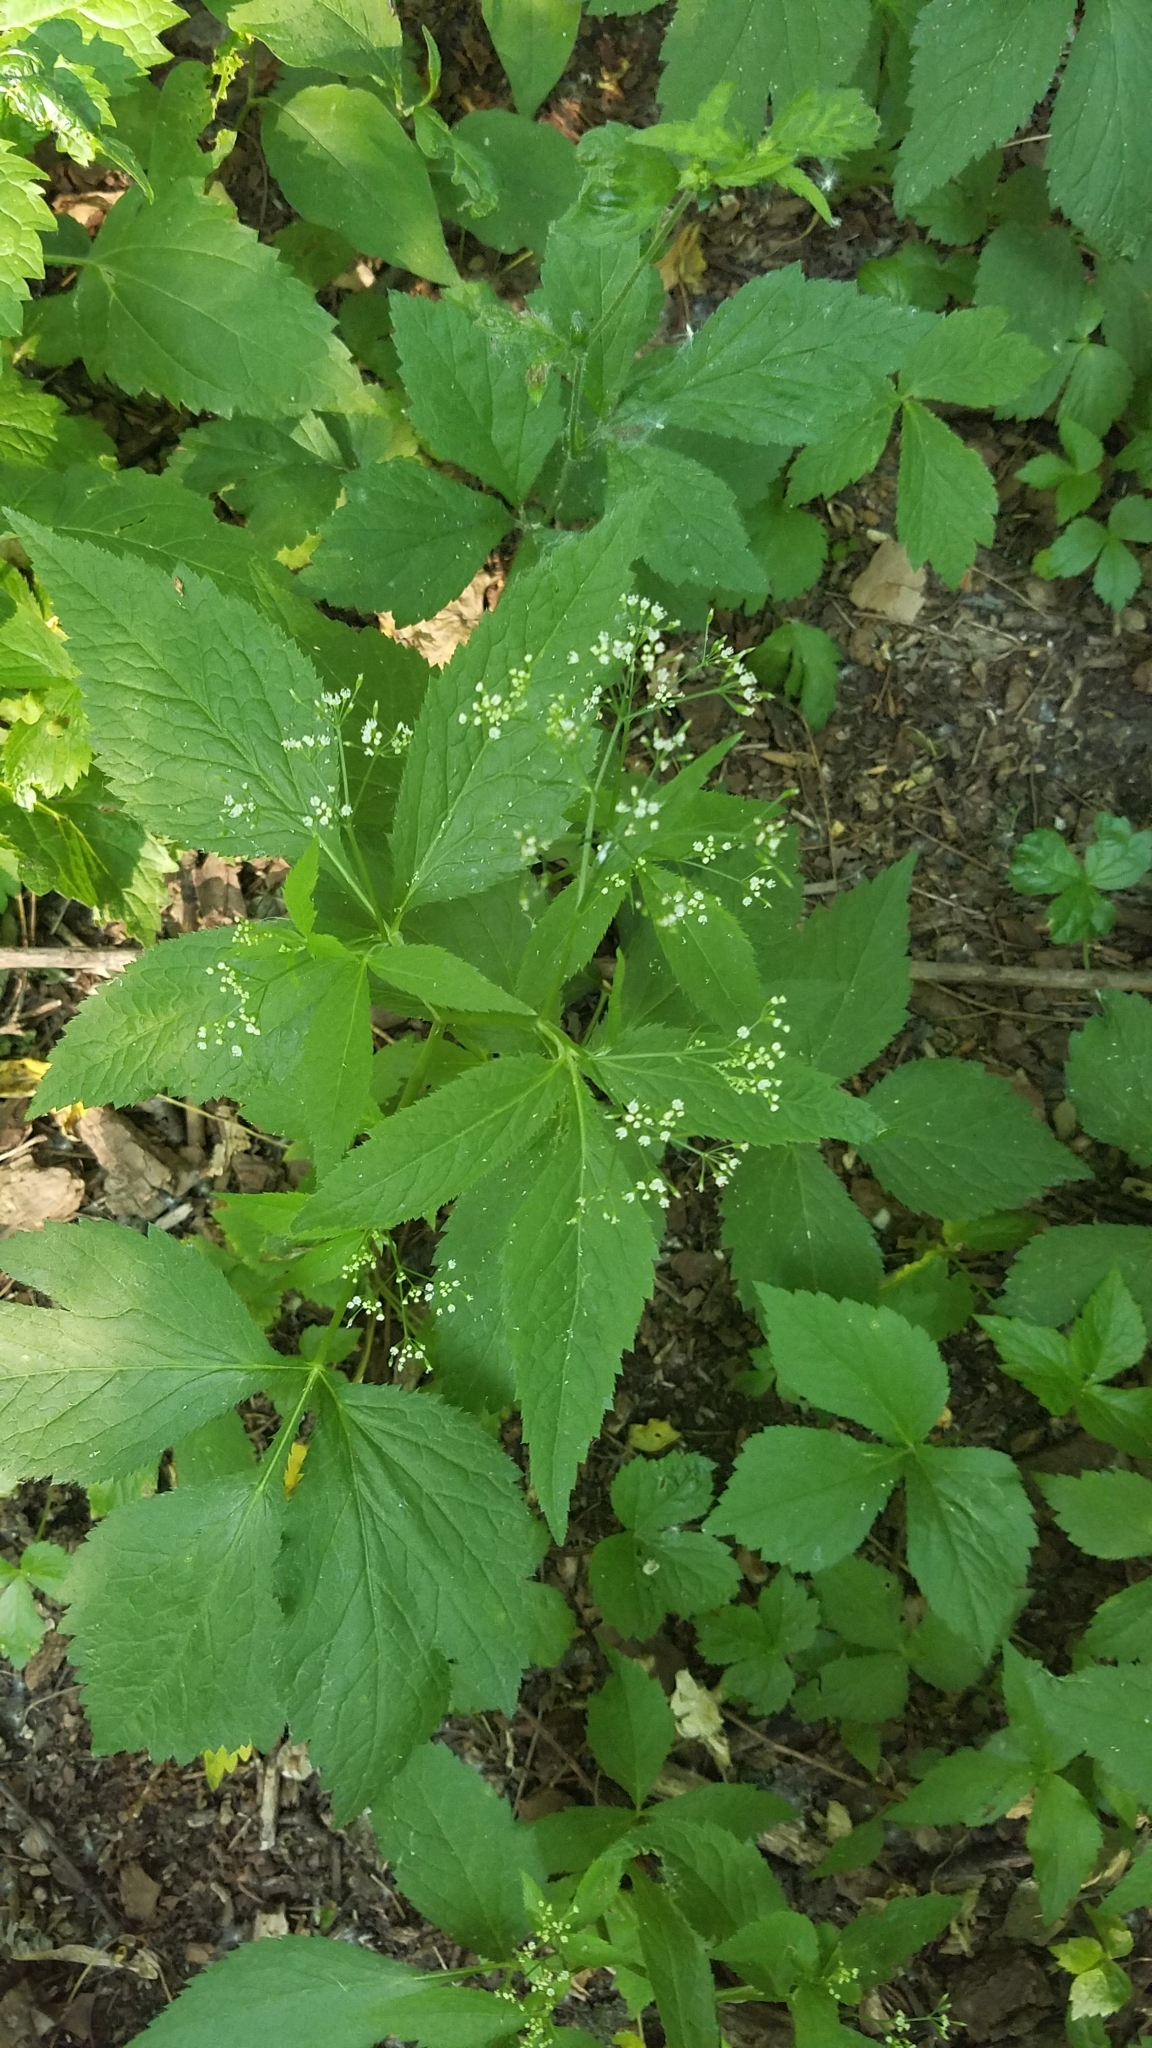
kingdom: Plantae
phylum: Tracheophyta
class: Magnoliopsida
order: Apiales
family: Apiaceae
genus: Cryptotaenia
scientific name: Cryptotaenia canadensis
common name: Honewort
